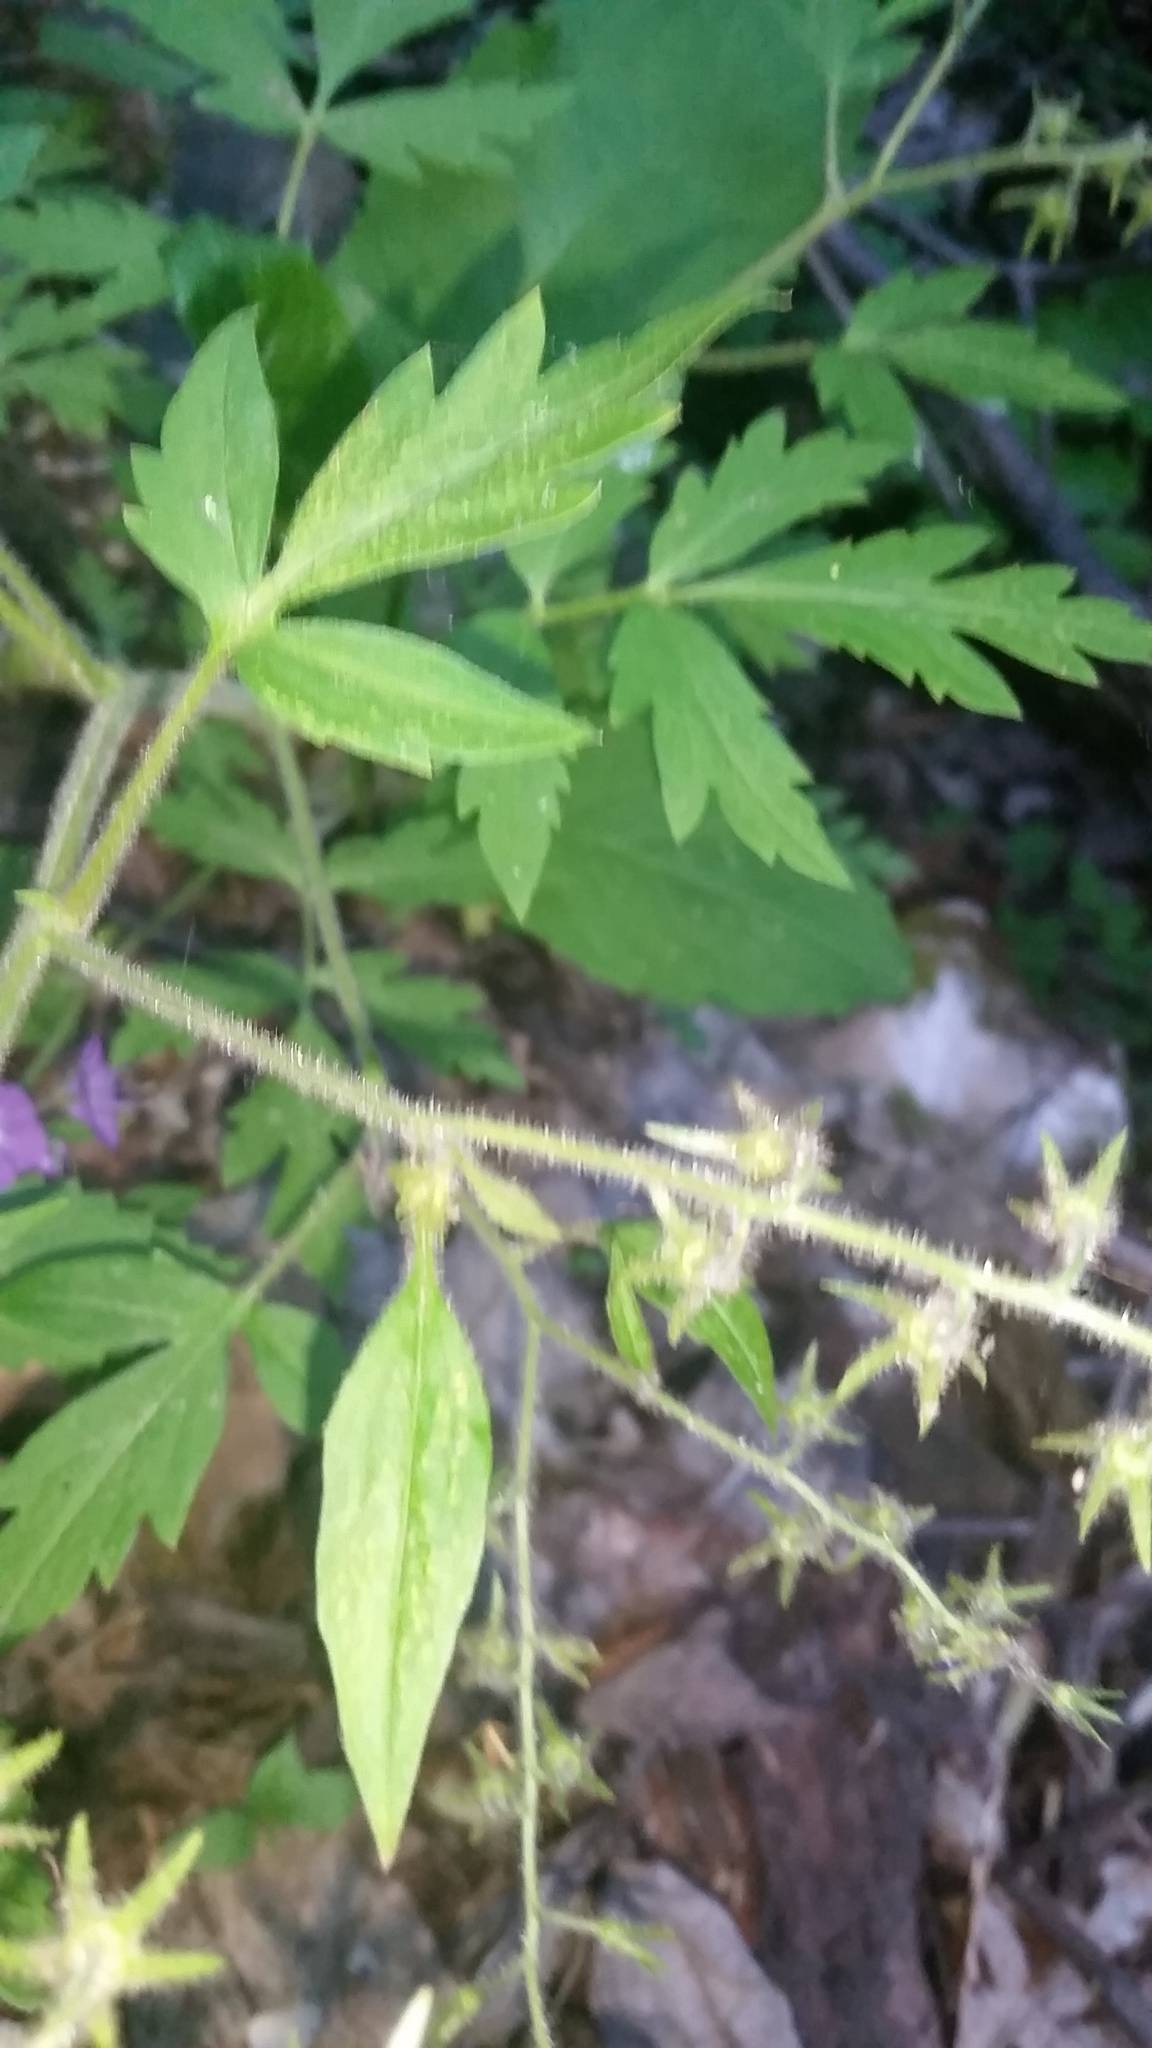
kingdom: Plantae
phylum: Tracheophyta
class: Magnoliopsida
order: Boraginales
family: Hydrophyllaceae
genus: Phacelia
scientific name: Phacelia bipinnatifida
